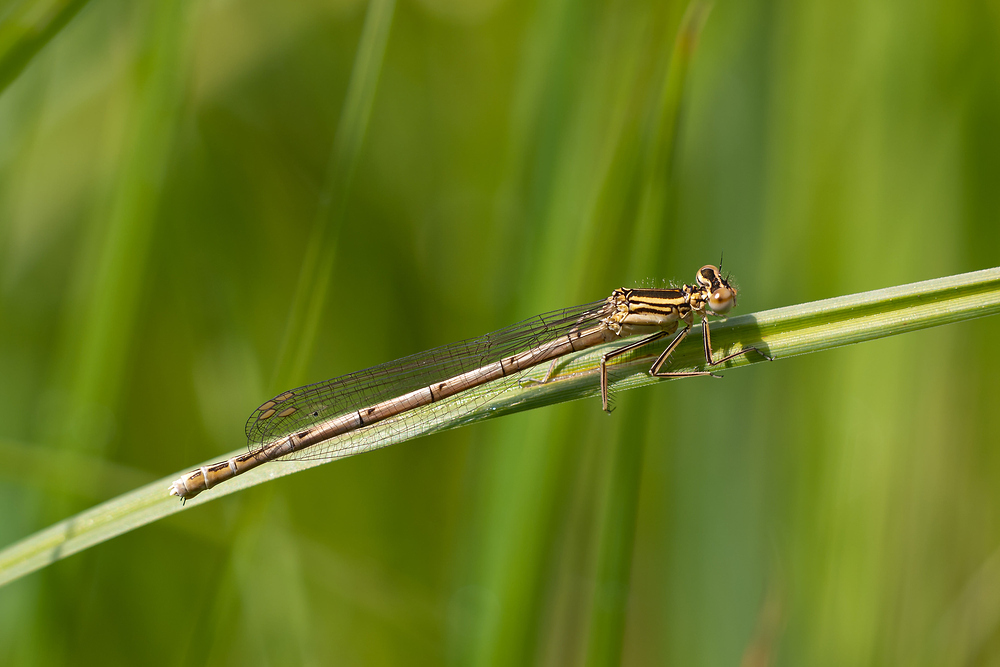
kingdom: Animalia
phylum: Arthropoda
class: Insecta
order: Odonata
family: Platycnemididae
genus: Platycnemis
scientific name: Platycnemis pennipes
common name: White-legged damselfly
